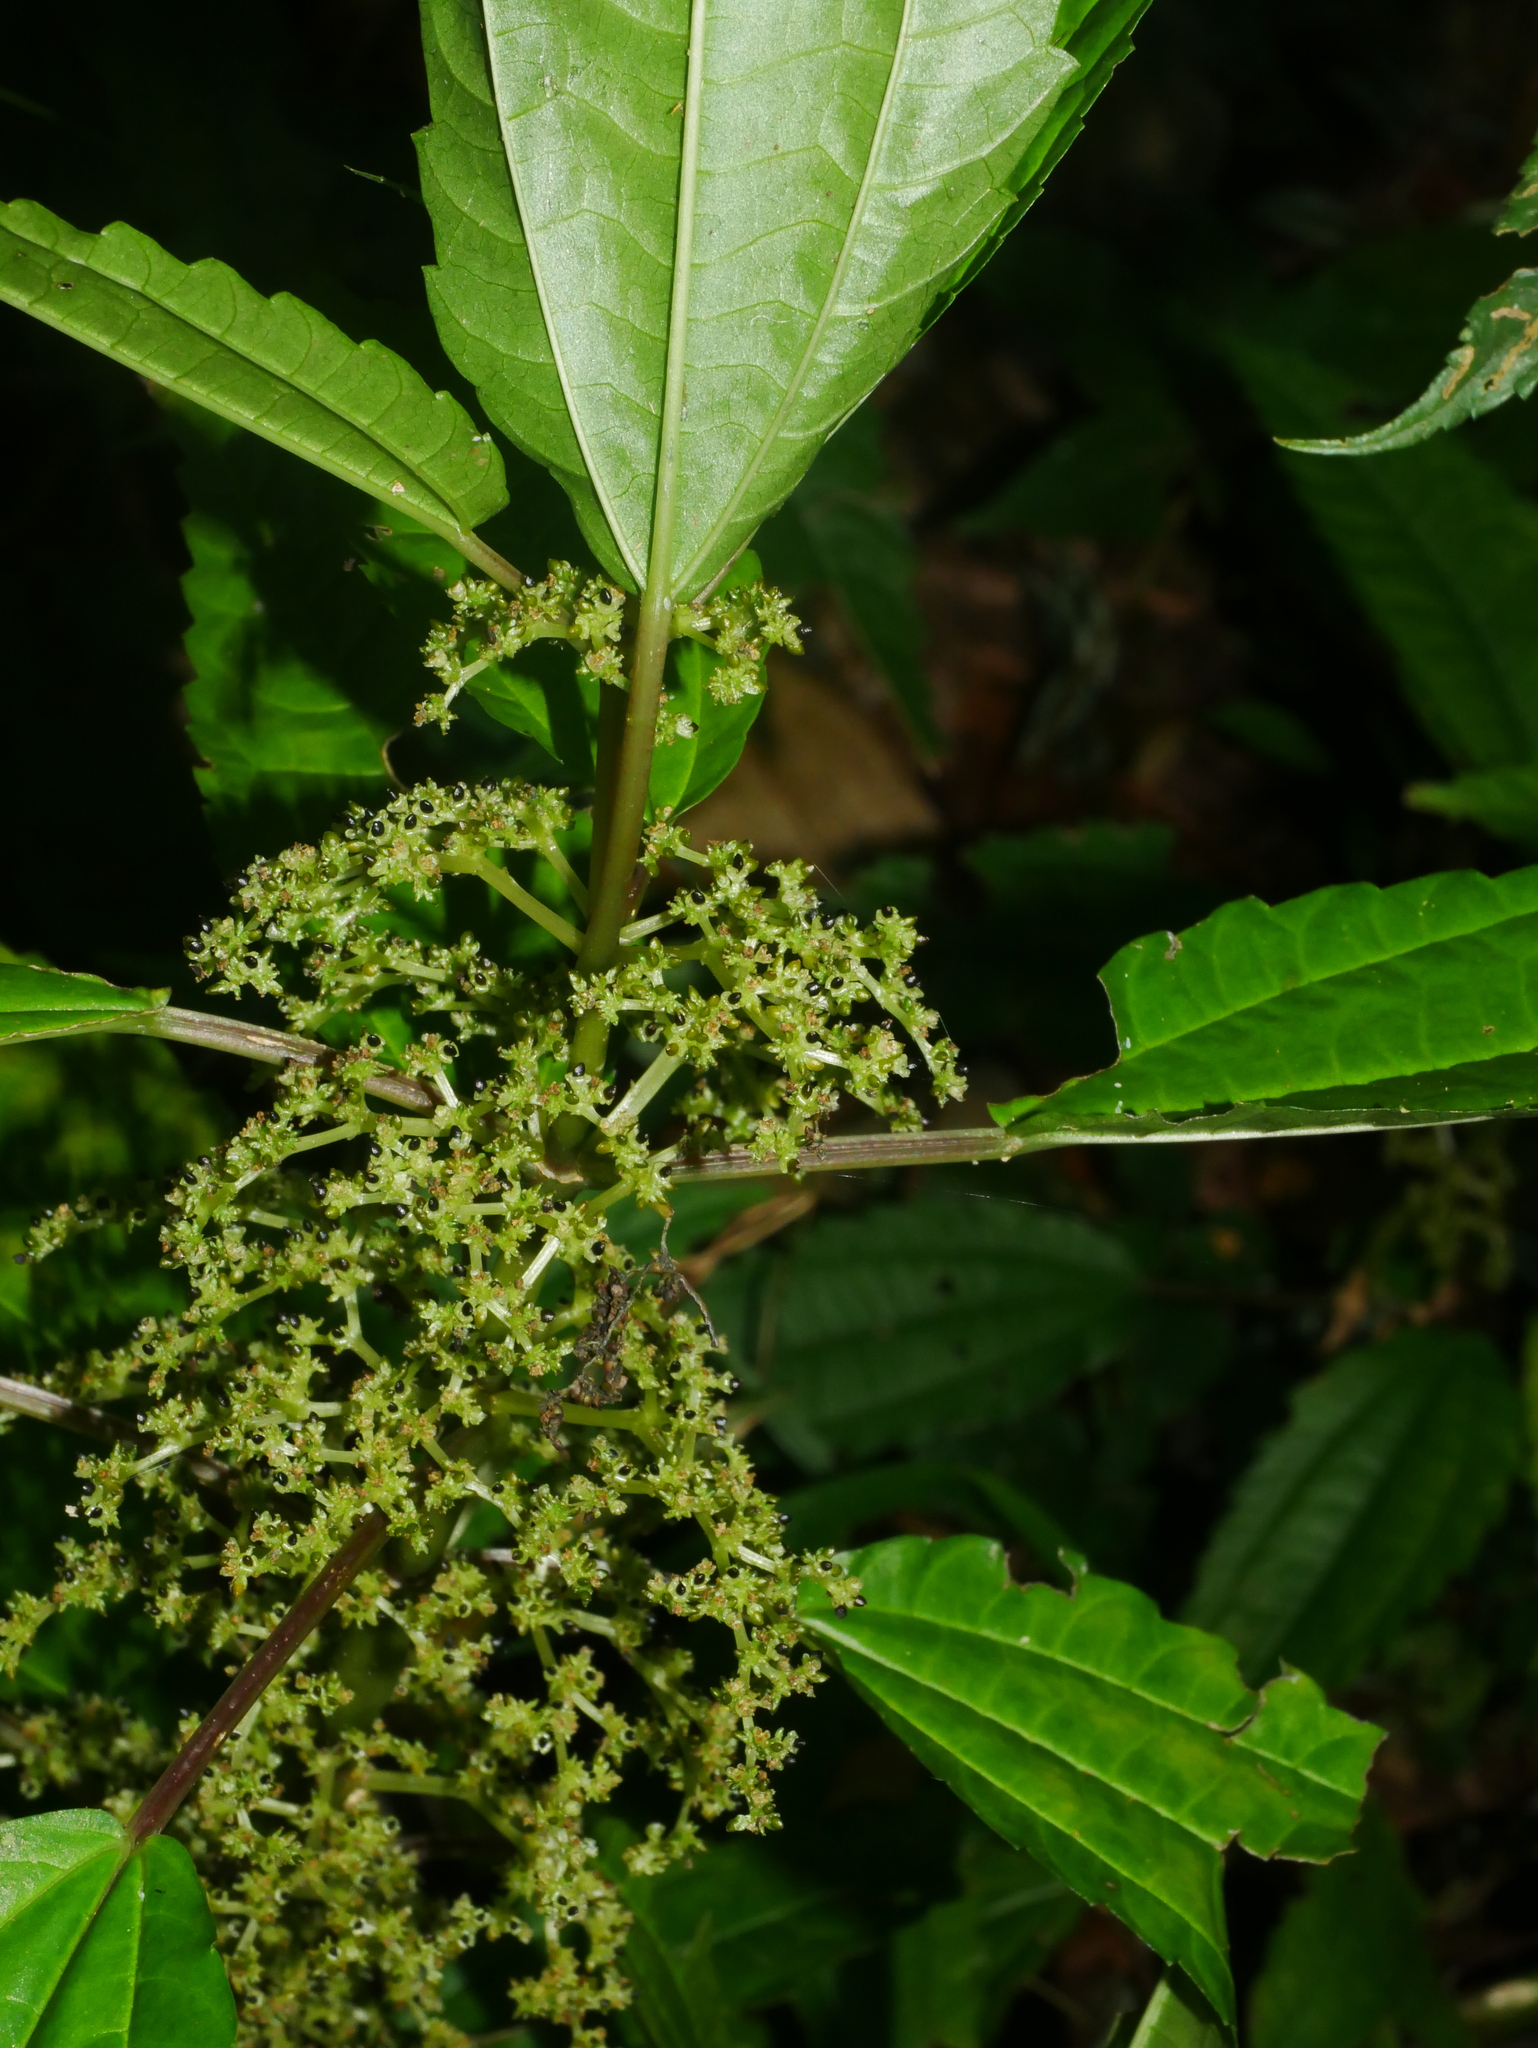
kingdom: Plantae
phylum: Tracheophyta
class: Magnoliopsida
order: Rosales
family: Urticaceae
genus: Pilea
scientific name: Pilea angulata
